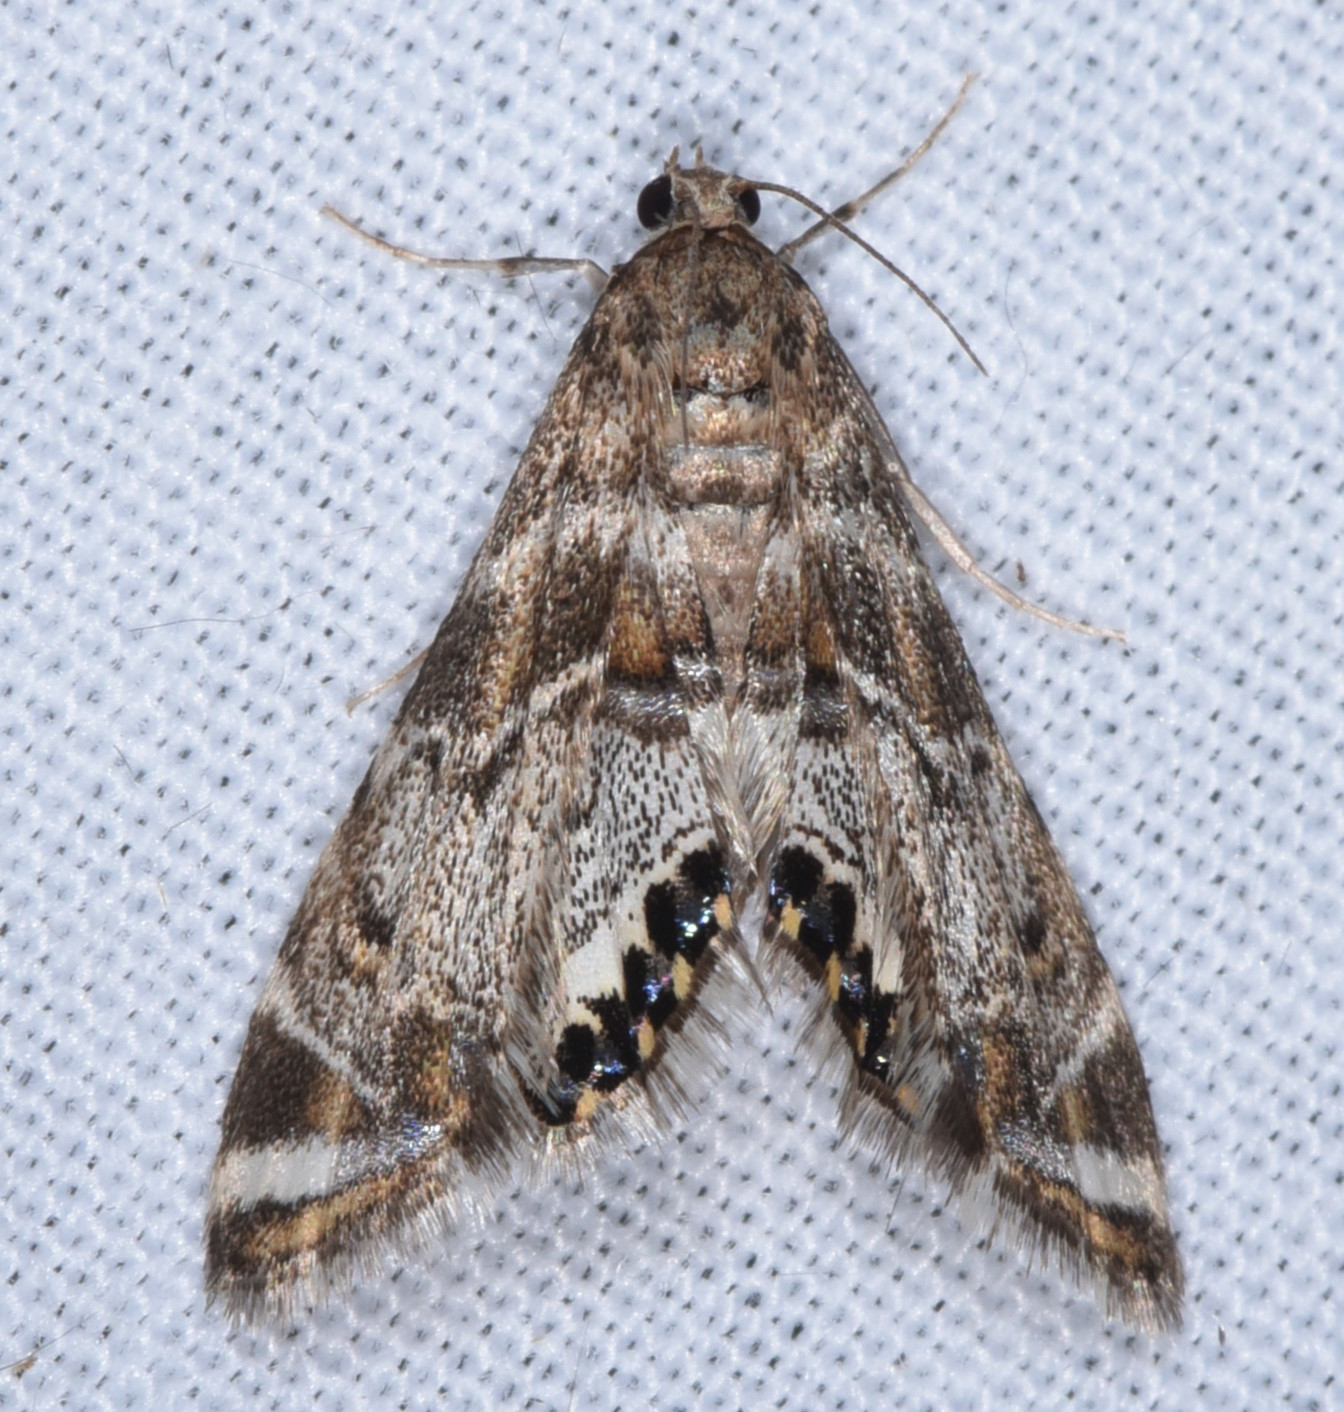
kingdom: Animalia
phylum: Arthropoda
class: Insecta
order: Lepidoptera
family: Crambidae
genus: Petrophila
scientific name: Petrophila confusalis
